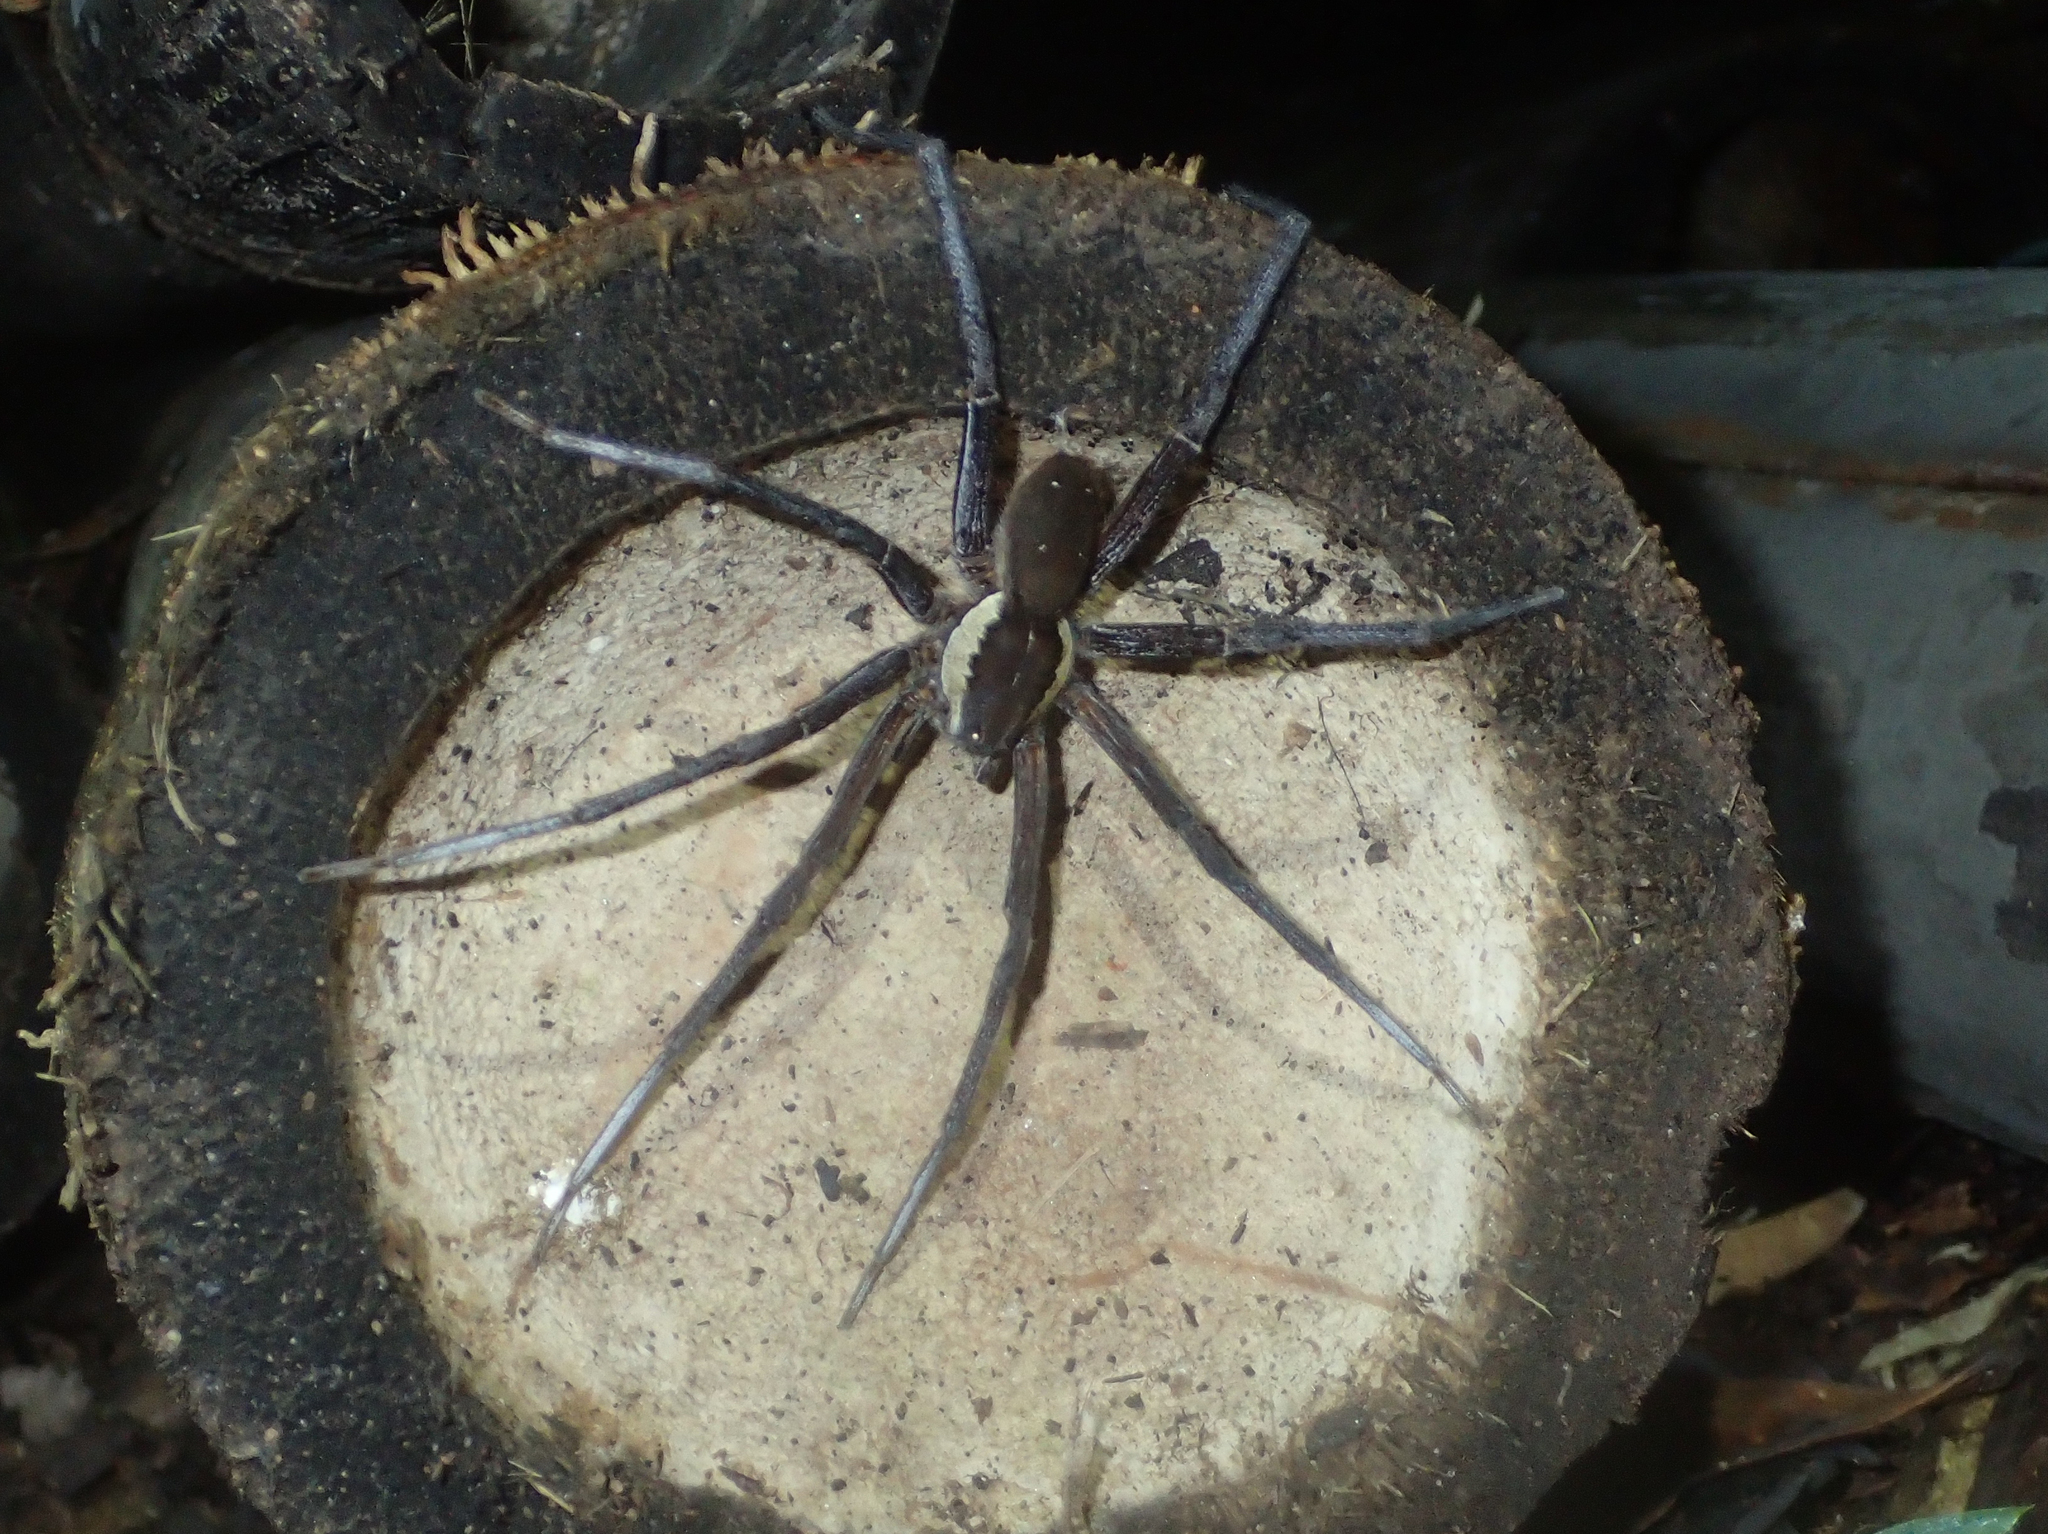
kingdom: Animalia
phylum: Arthropoda
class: Arachnida
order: Araneae
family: Ctenidae
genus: Ancylometes
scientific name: Ancylometes rufus
